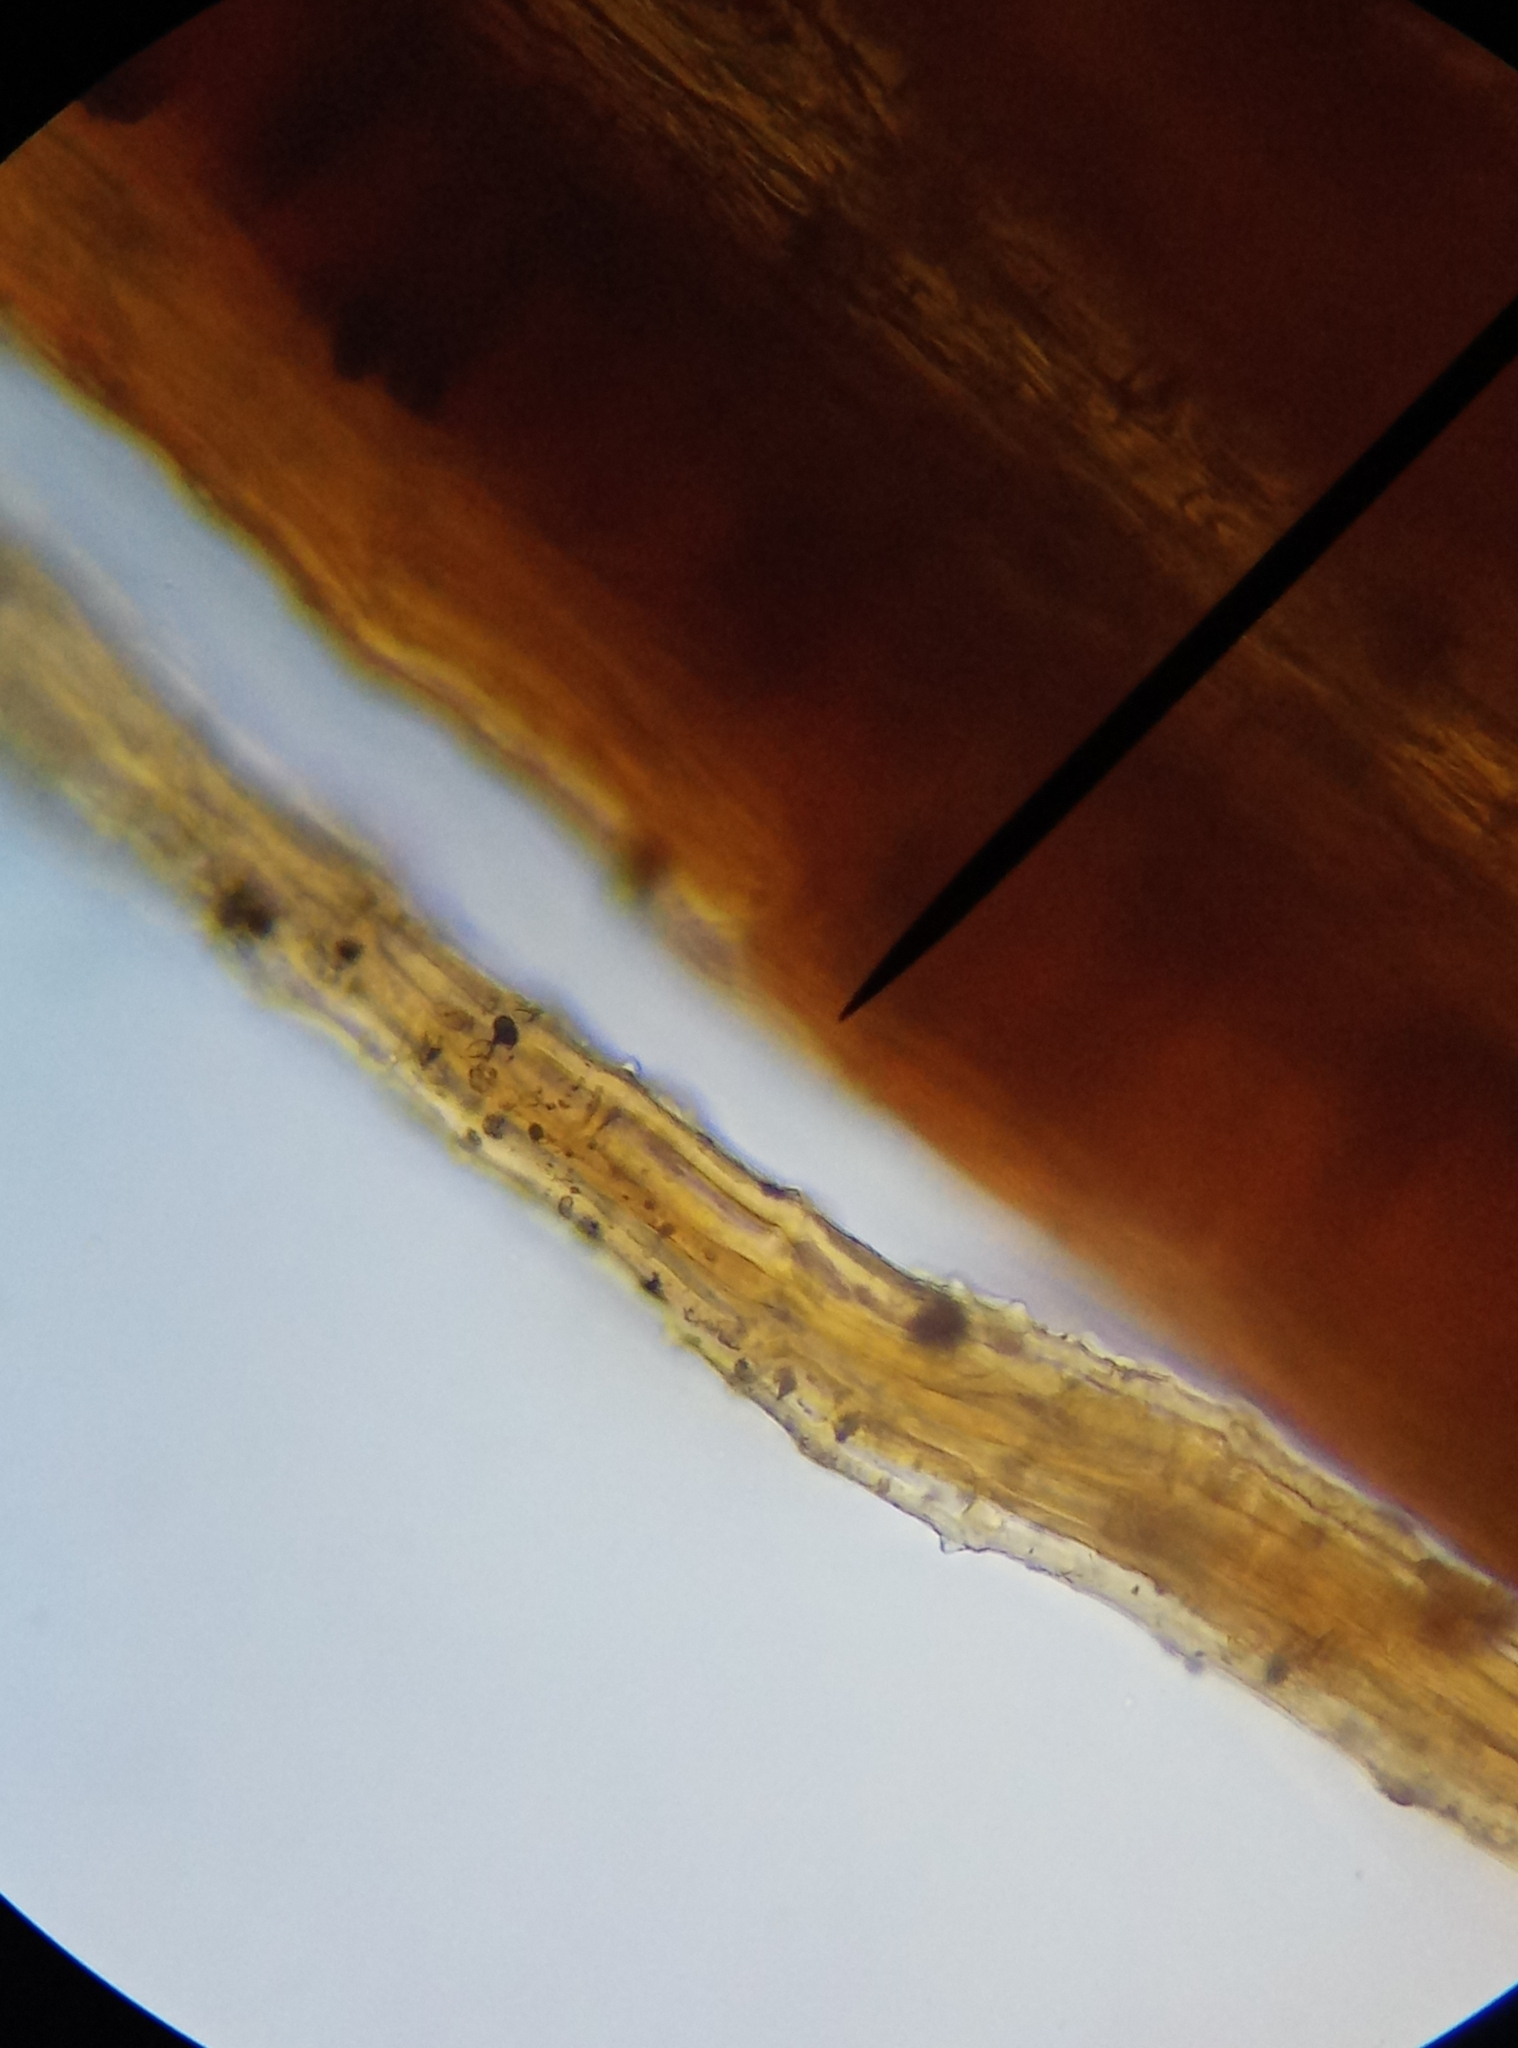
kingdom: Plantae
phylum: Bryophyta
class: Bryopsida
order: Orthotrichales
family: Orthotrichaceae
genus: Orthotrichum
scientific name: Orthotrichum anomalum
